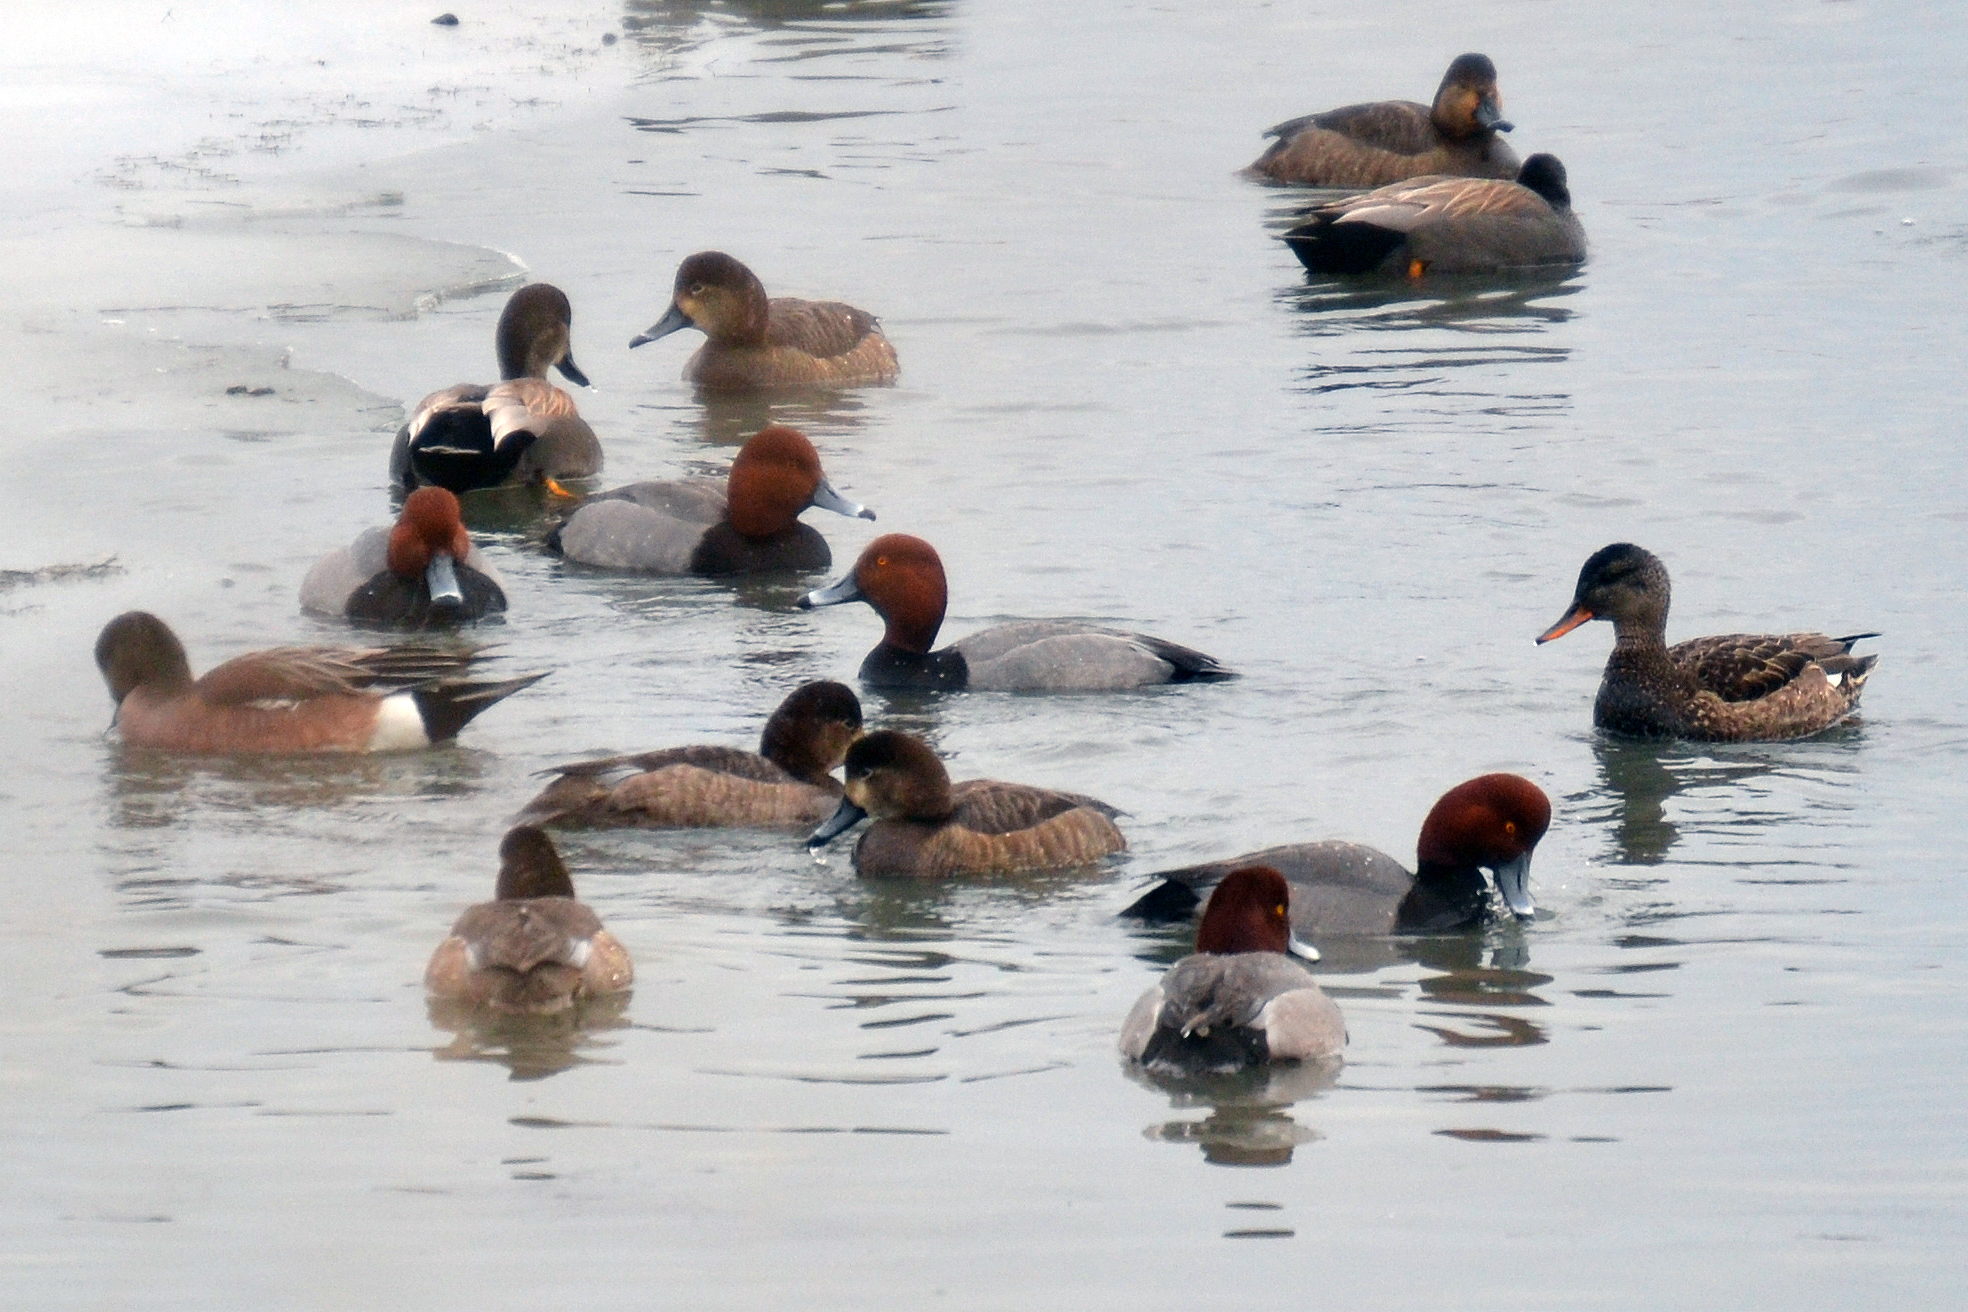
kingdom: Animalia
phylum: Chordata
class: Aves
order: Anseriformes
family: Anatidae
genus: Mareca
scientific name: Mareca strepera
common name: Gadwall
